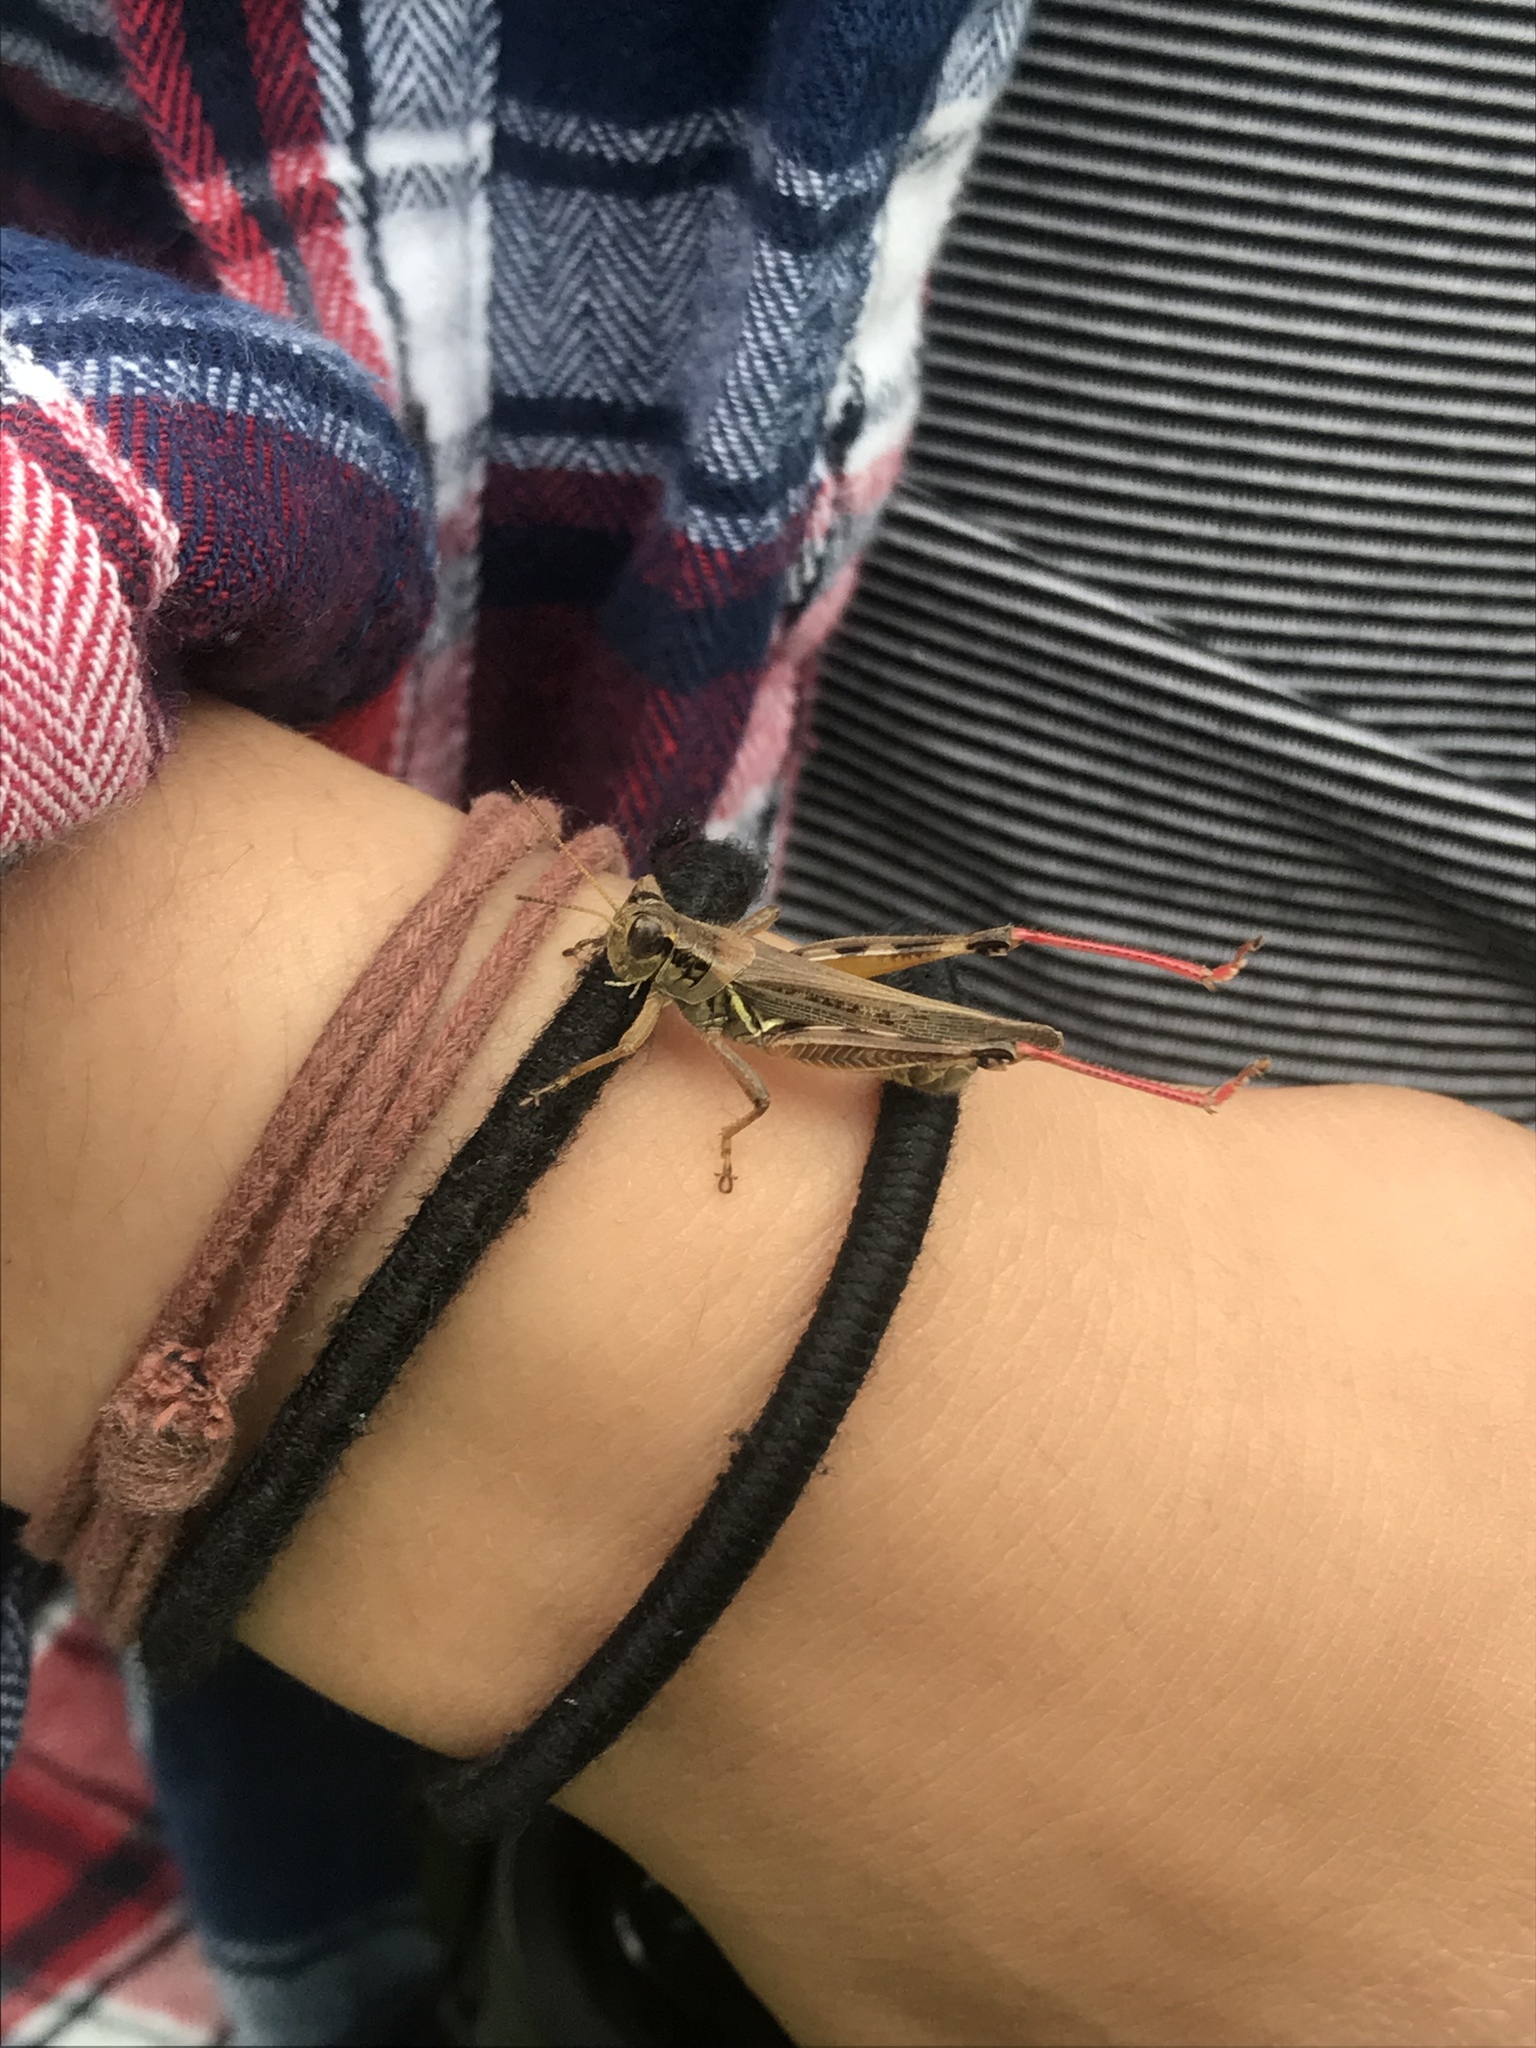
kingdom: Animalia
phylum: Arthropoda
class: Insecta
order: Orthoptera
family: Acrididae
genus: Melanoplus
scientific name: Melanoplus femurrubrum
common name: Red-legged grasshopper
